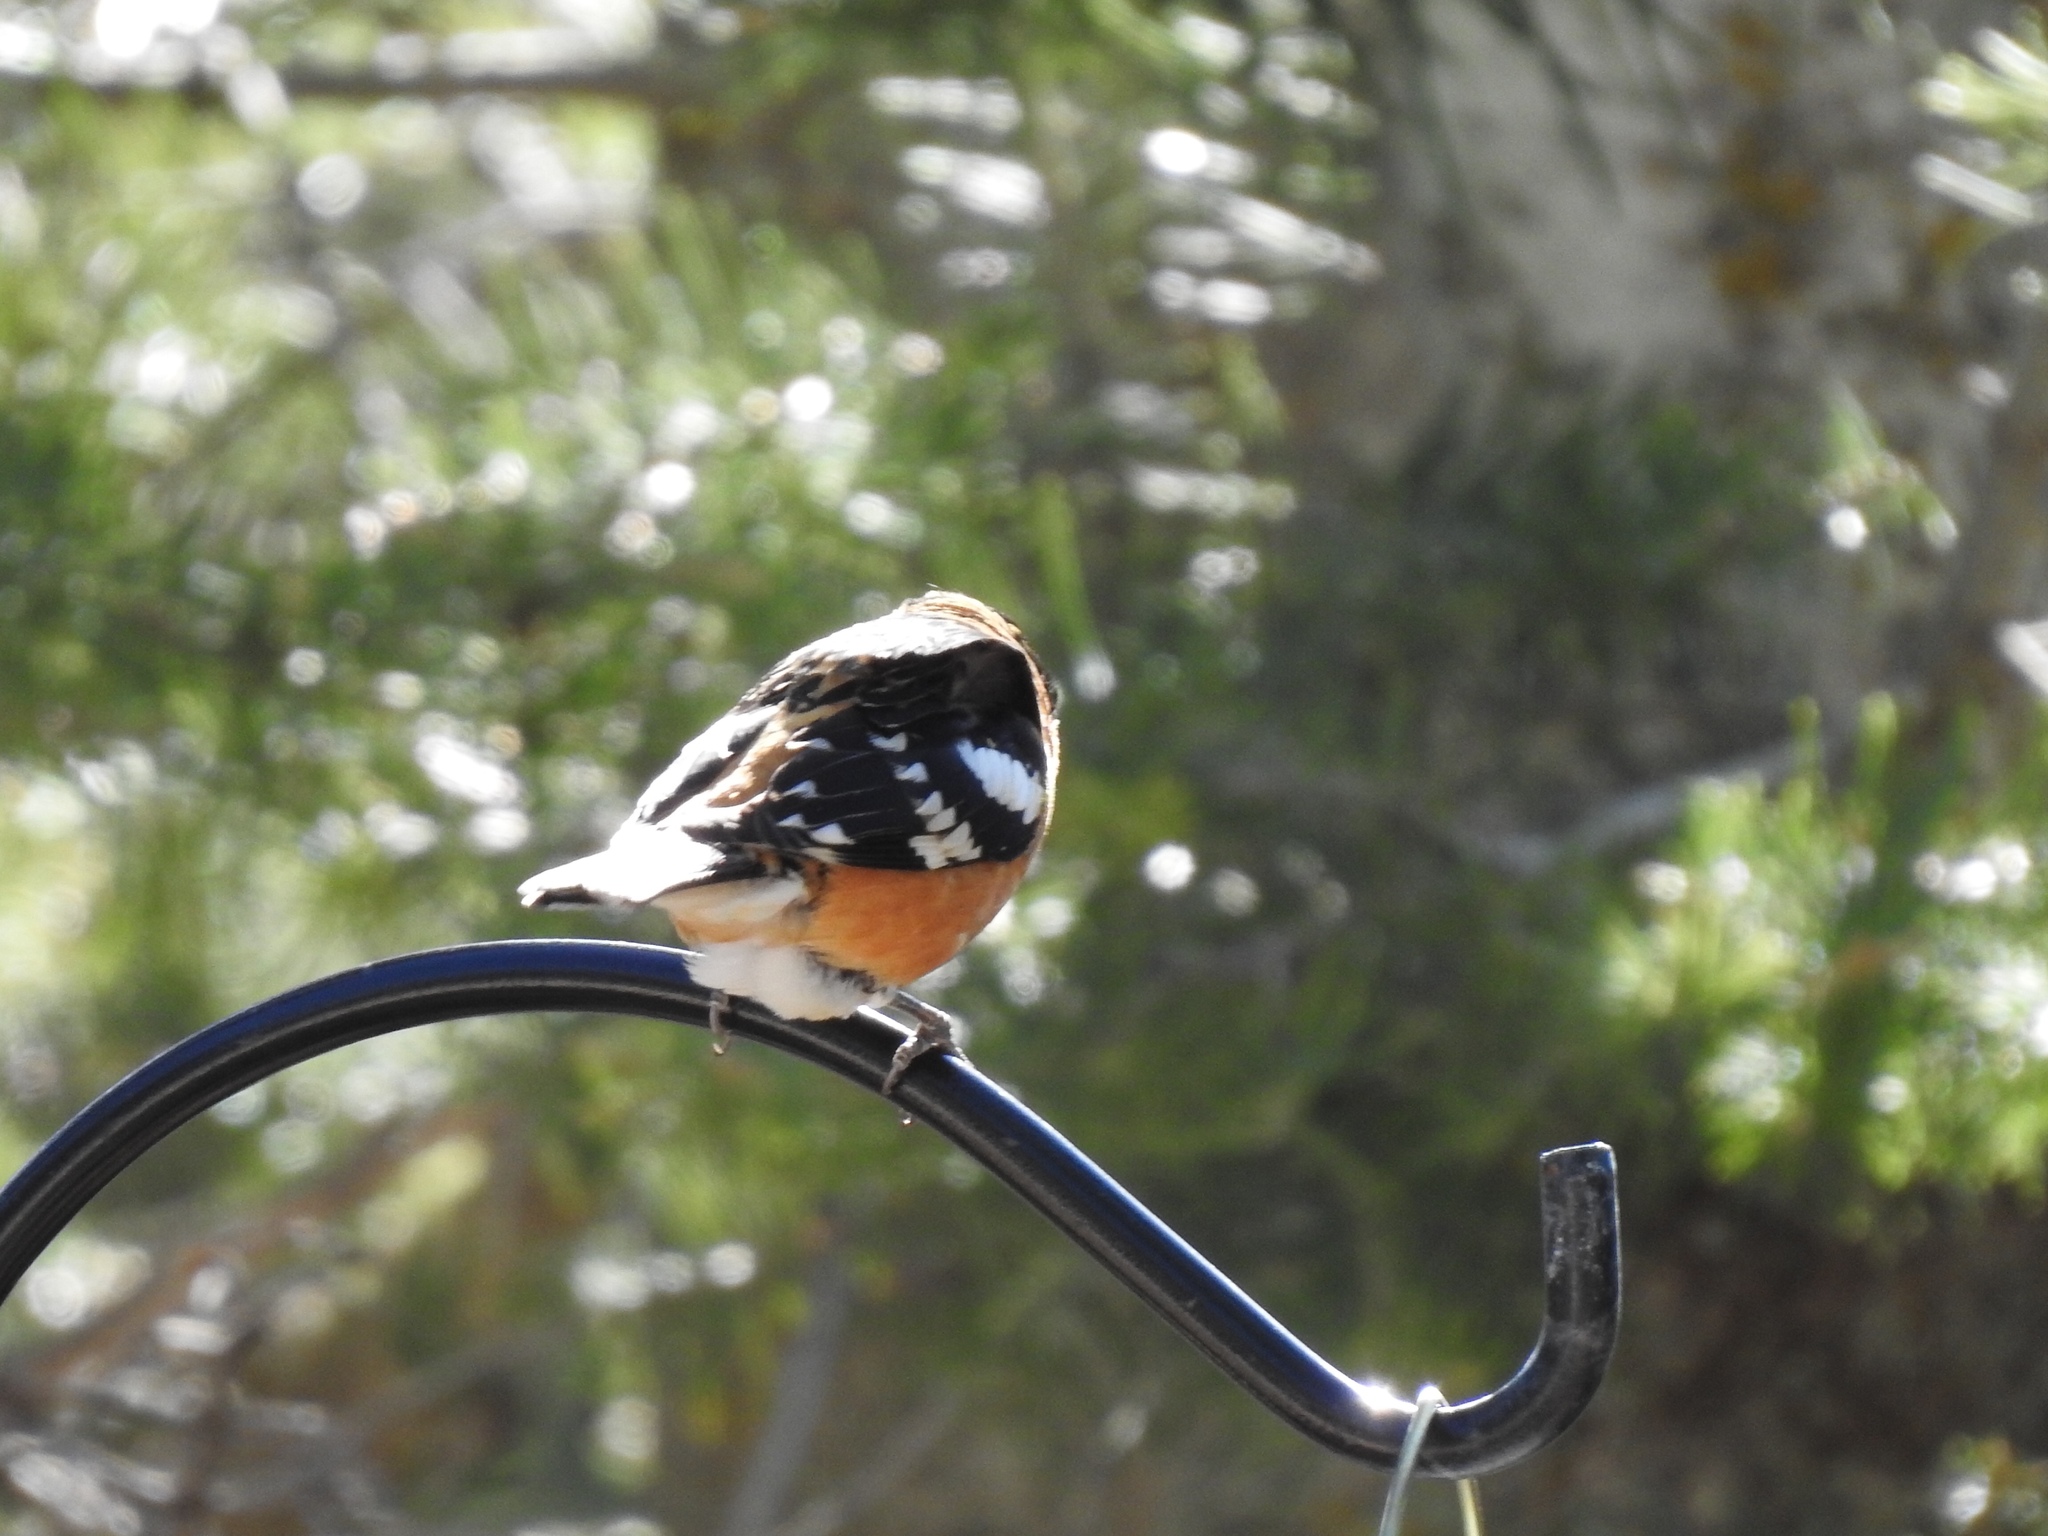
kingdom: Animalia
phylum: Chordata
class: Aves
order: Passeriformes
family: Cardinalidae
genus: Pheucticus
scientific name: Pheucticus melanocephalus
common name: Black-headed grosbeak
